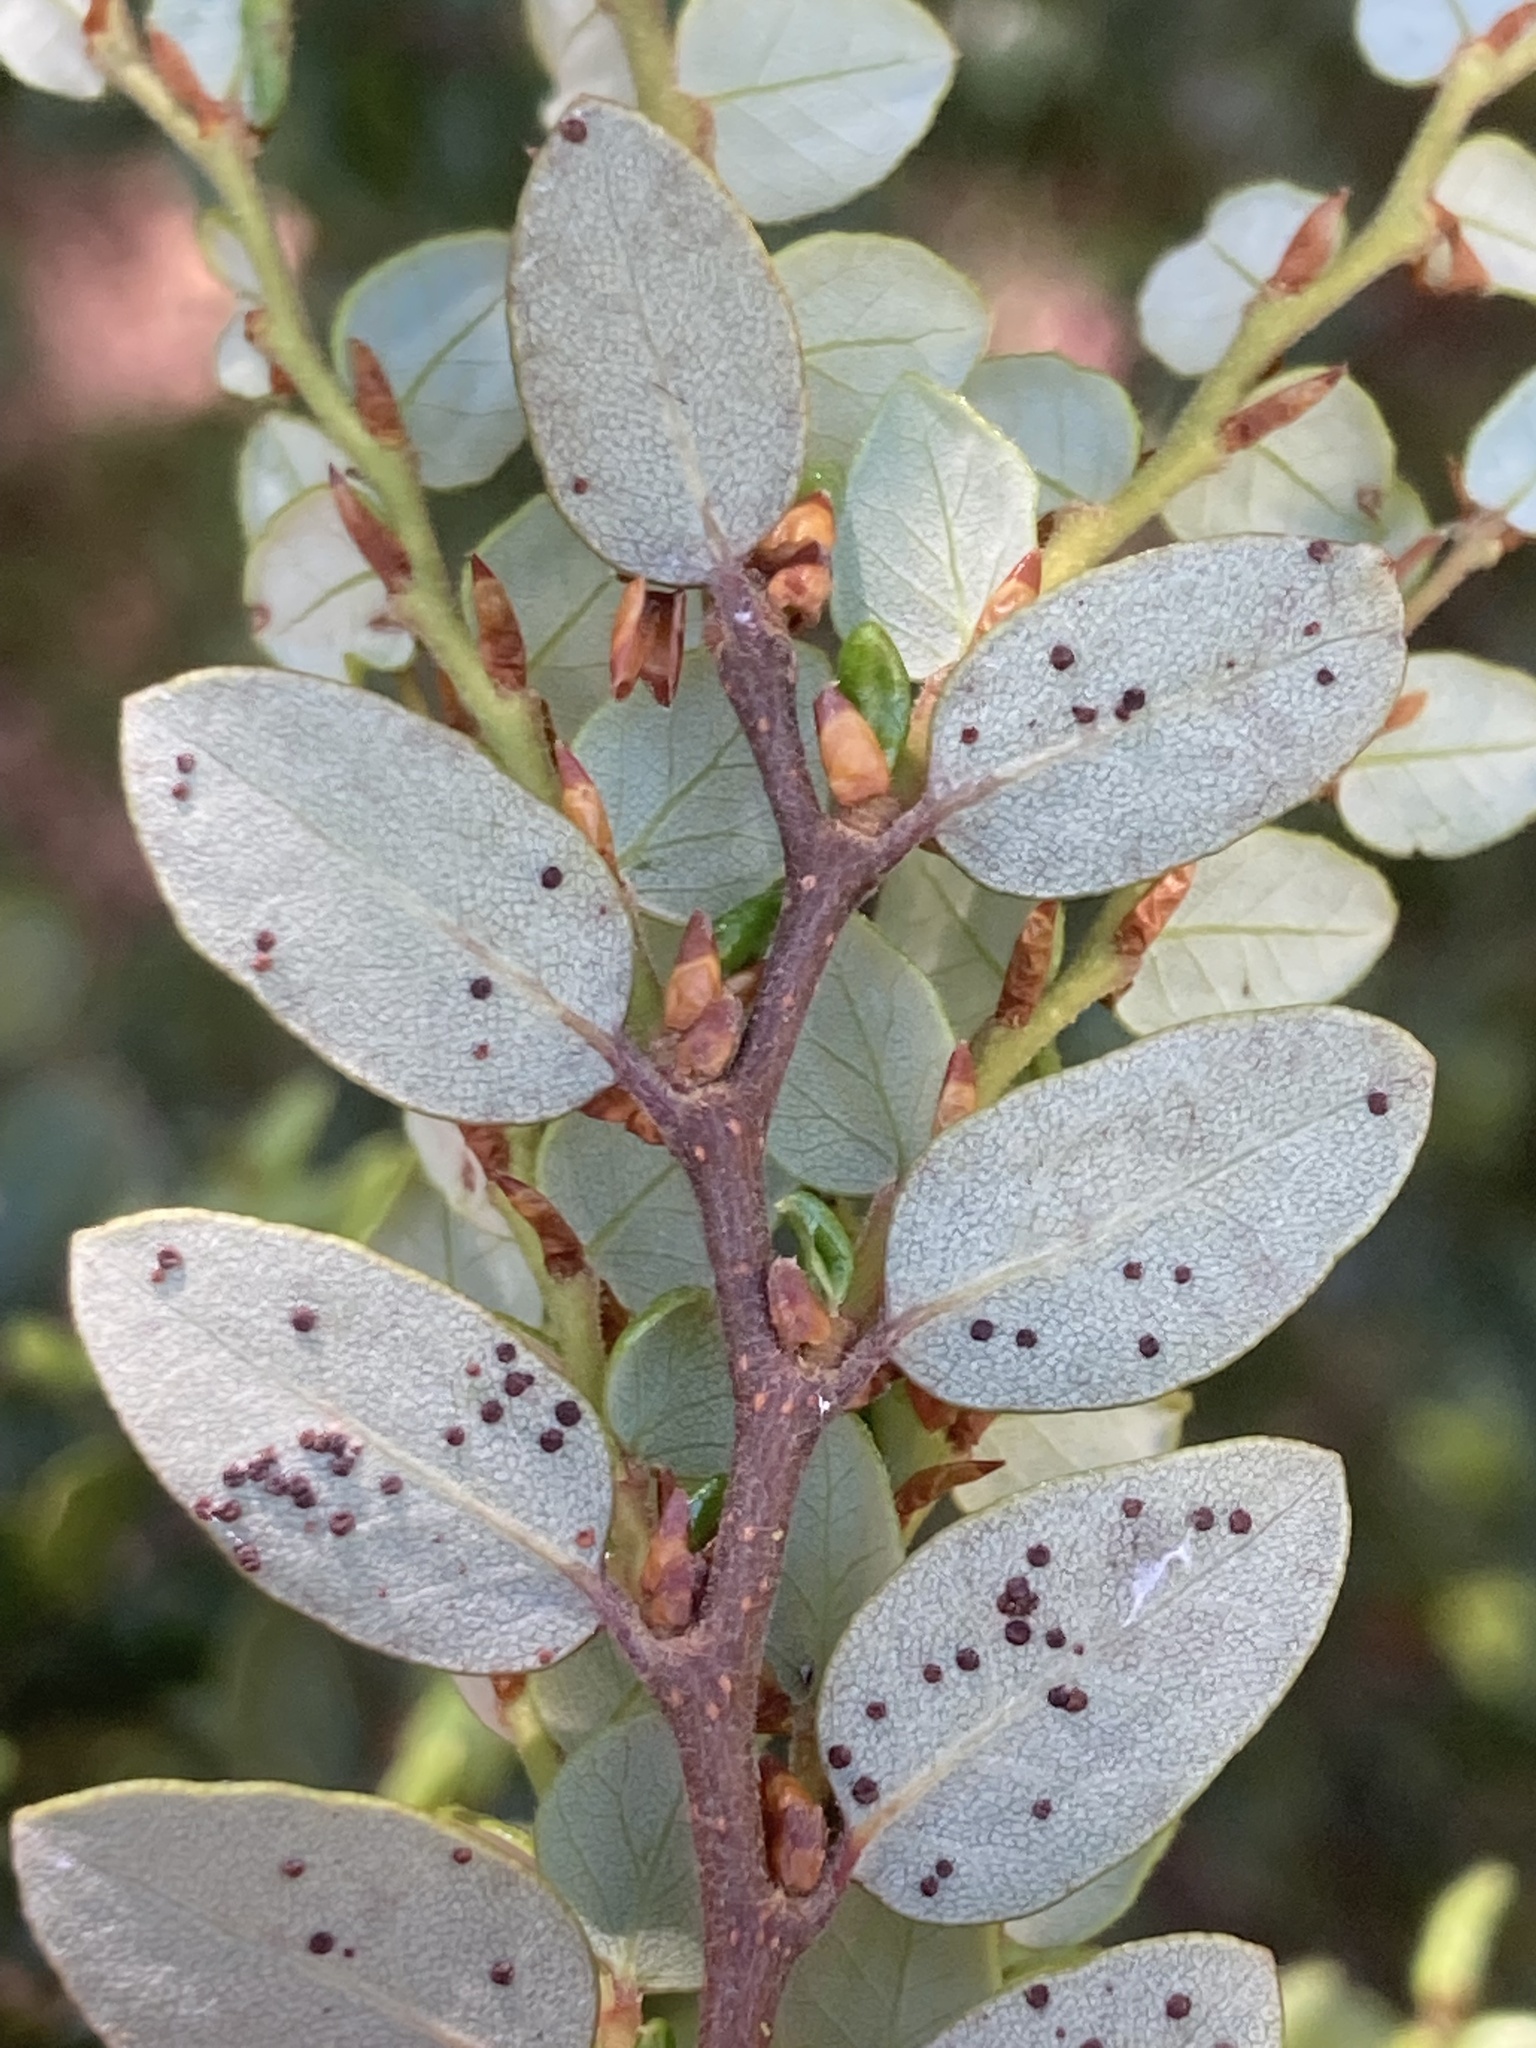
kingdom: Plantae
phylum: Tracheophyta
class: Magnoliopsida
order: Fagales
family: Nothofagaceae
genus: Nothofagus
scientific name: Nothofagus cliffortioides
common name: Mountain beech
